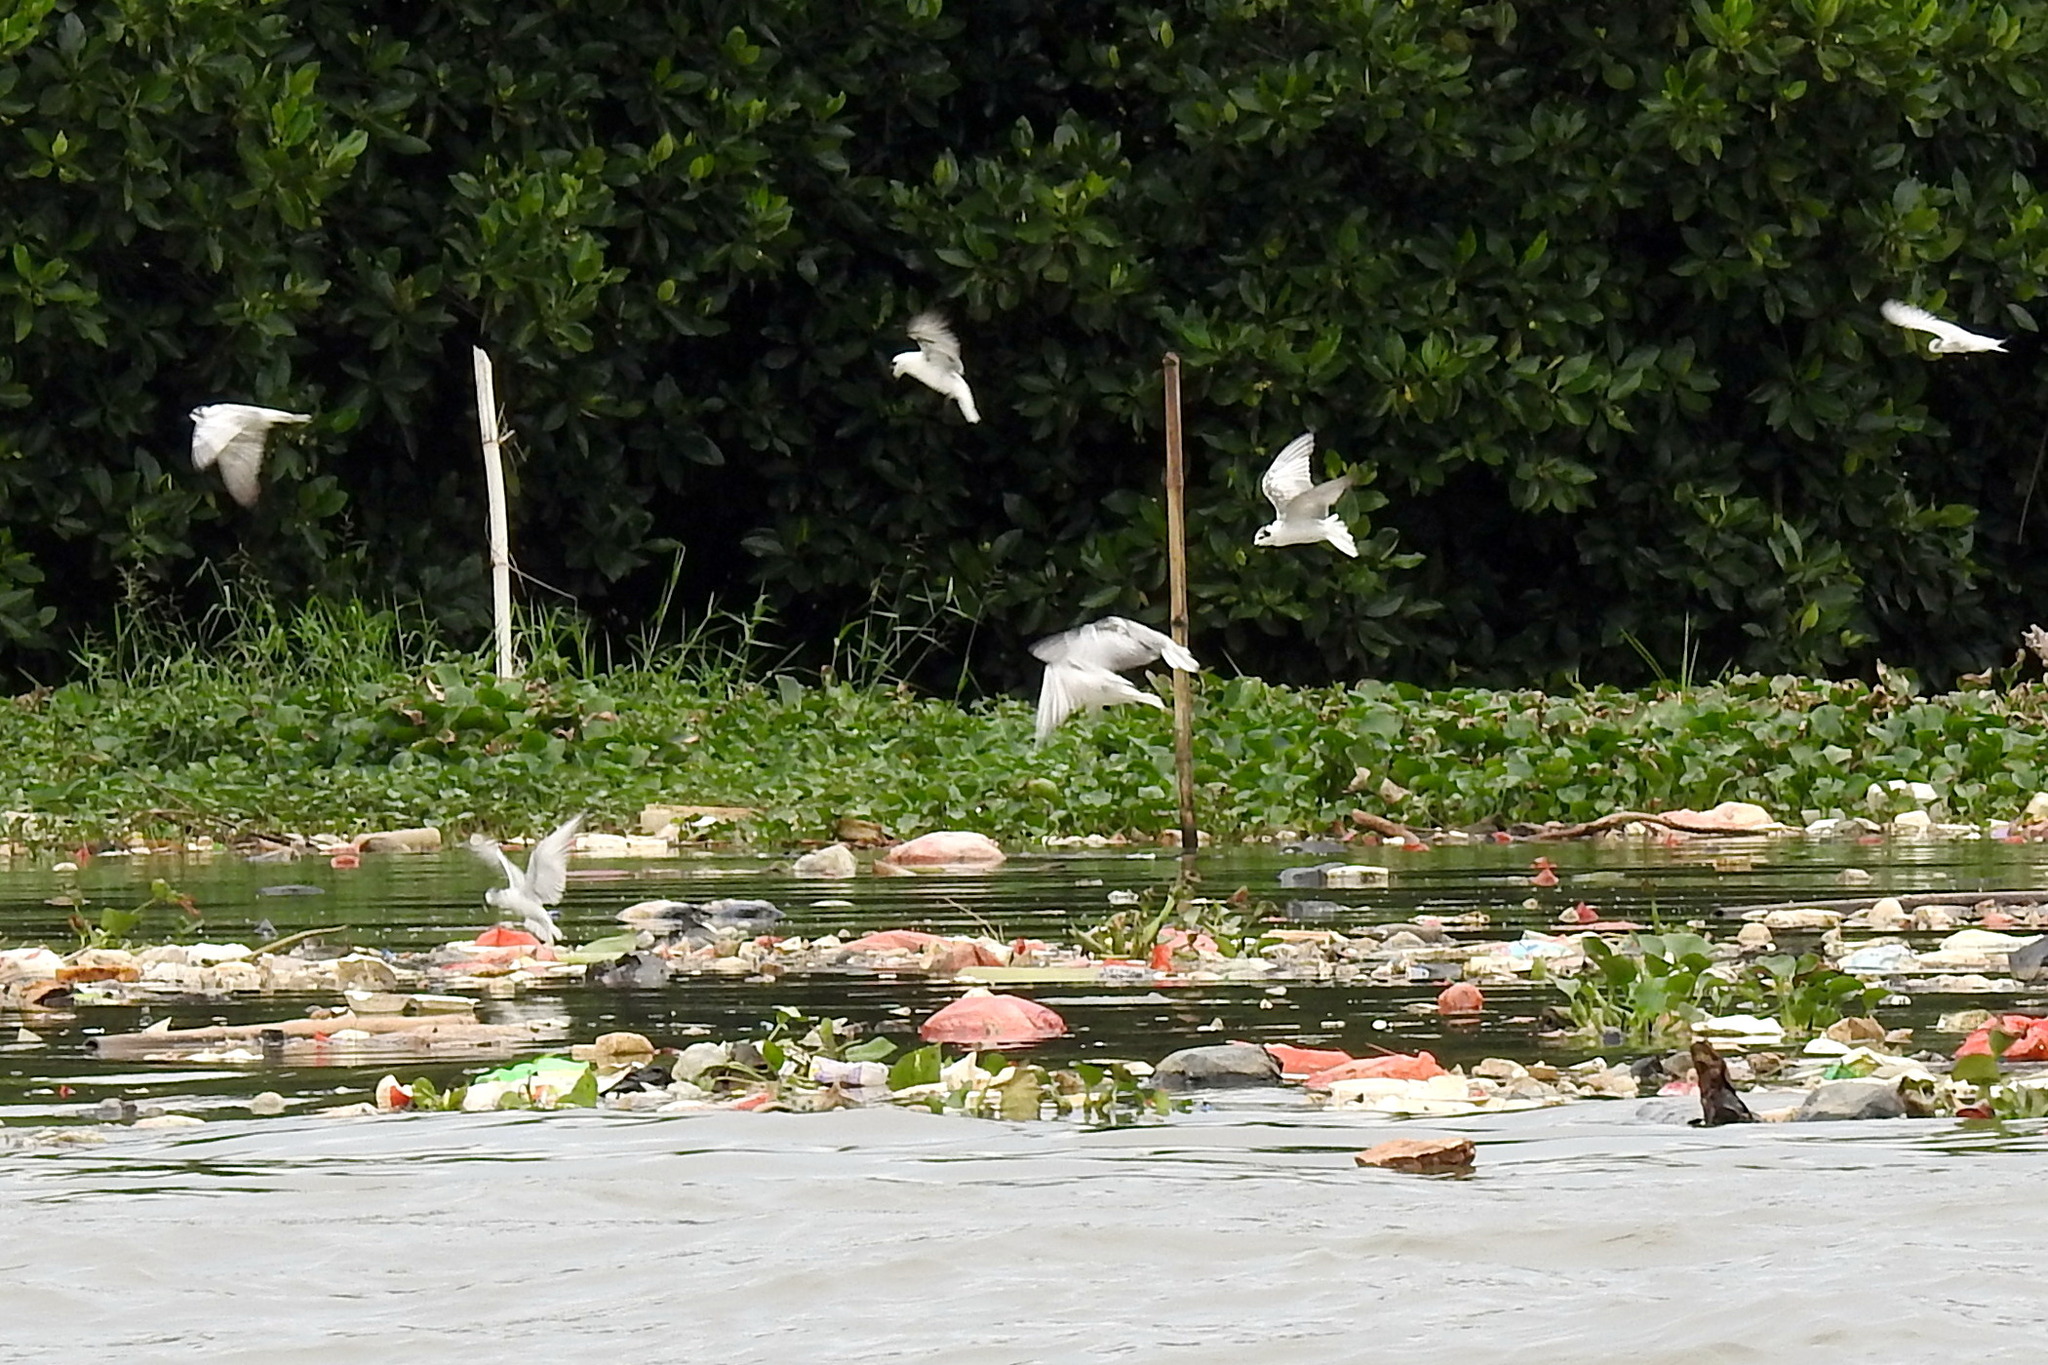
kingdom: Animalia
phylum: Chordata
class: Aves
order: Charadriiformes
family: Laridae
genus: Chlidonias
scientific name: Chlidonias leucopterus
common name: White-winged tern
